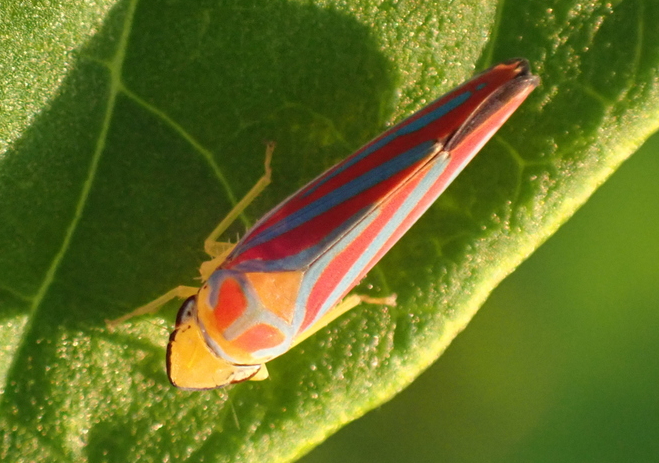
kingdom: Animalia
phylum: Arthropoda
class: Insecta
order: Hemiptera
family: Cicadellidae
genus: Graphocephala
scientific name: Graphocephala coccinea
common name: Candy-striped leafhopper
